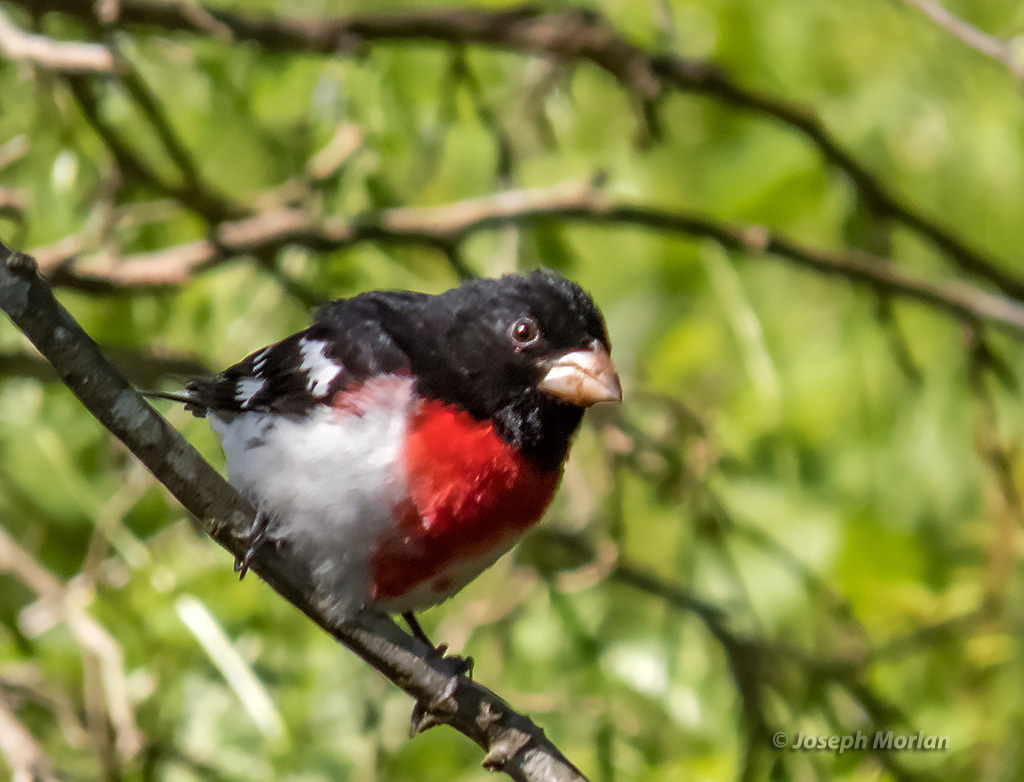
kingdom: Animalia
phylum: Chordata
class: Aves
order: Passeriformes
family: Cardinalidae
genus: Pheucticus
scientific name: Pheucticus ludovicianus
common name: Rose-breasted grosbeak
